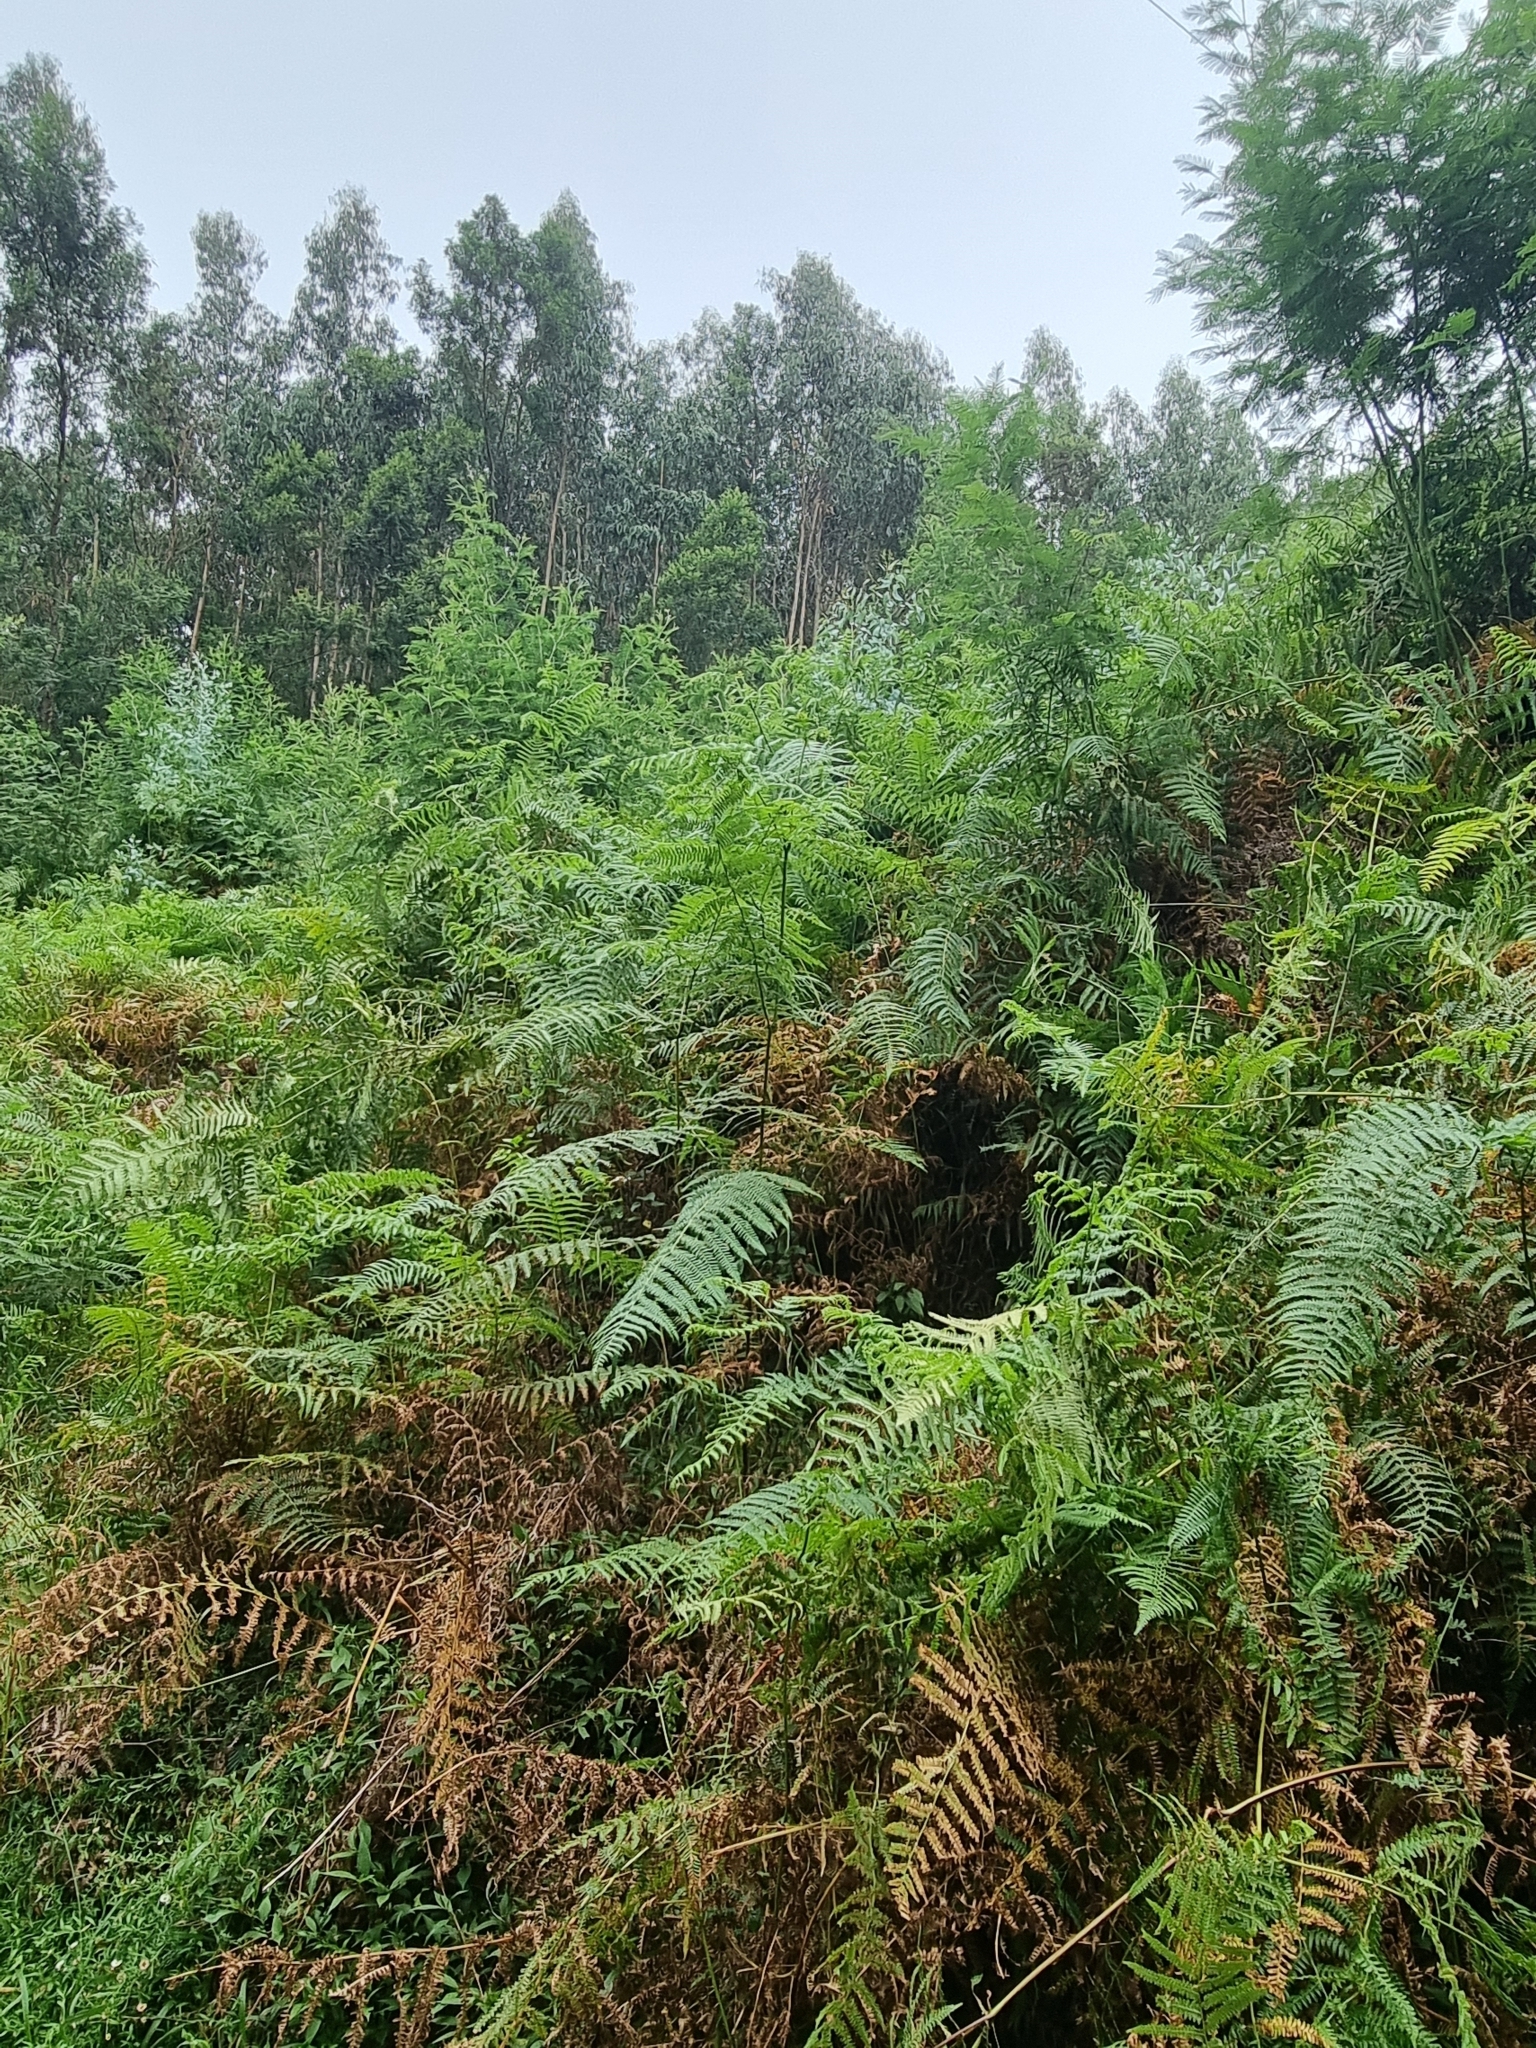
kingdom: Plantae
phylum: Tracheophyta
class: Polypodiopsida
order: Polypodiales
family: Dennstaedtiaceae
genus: Pteridium
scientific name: Pteridium aquilinum
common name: Bracken
